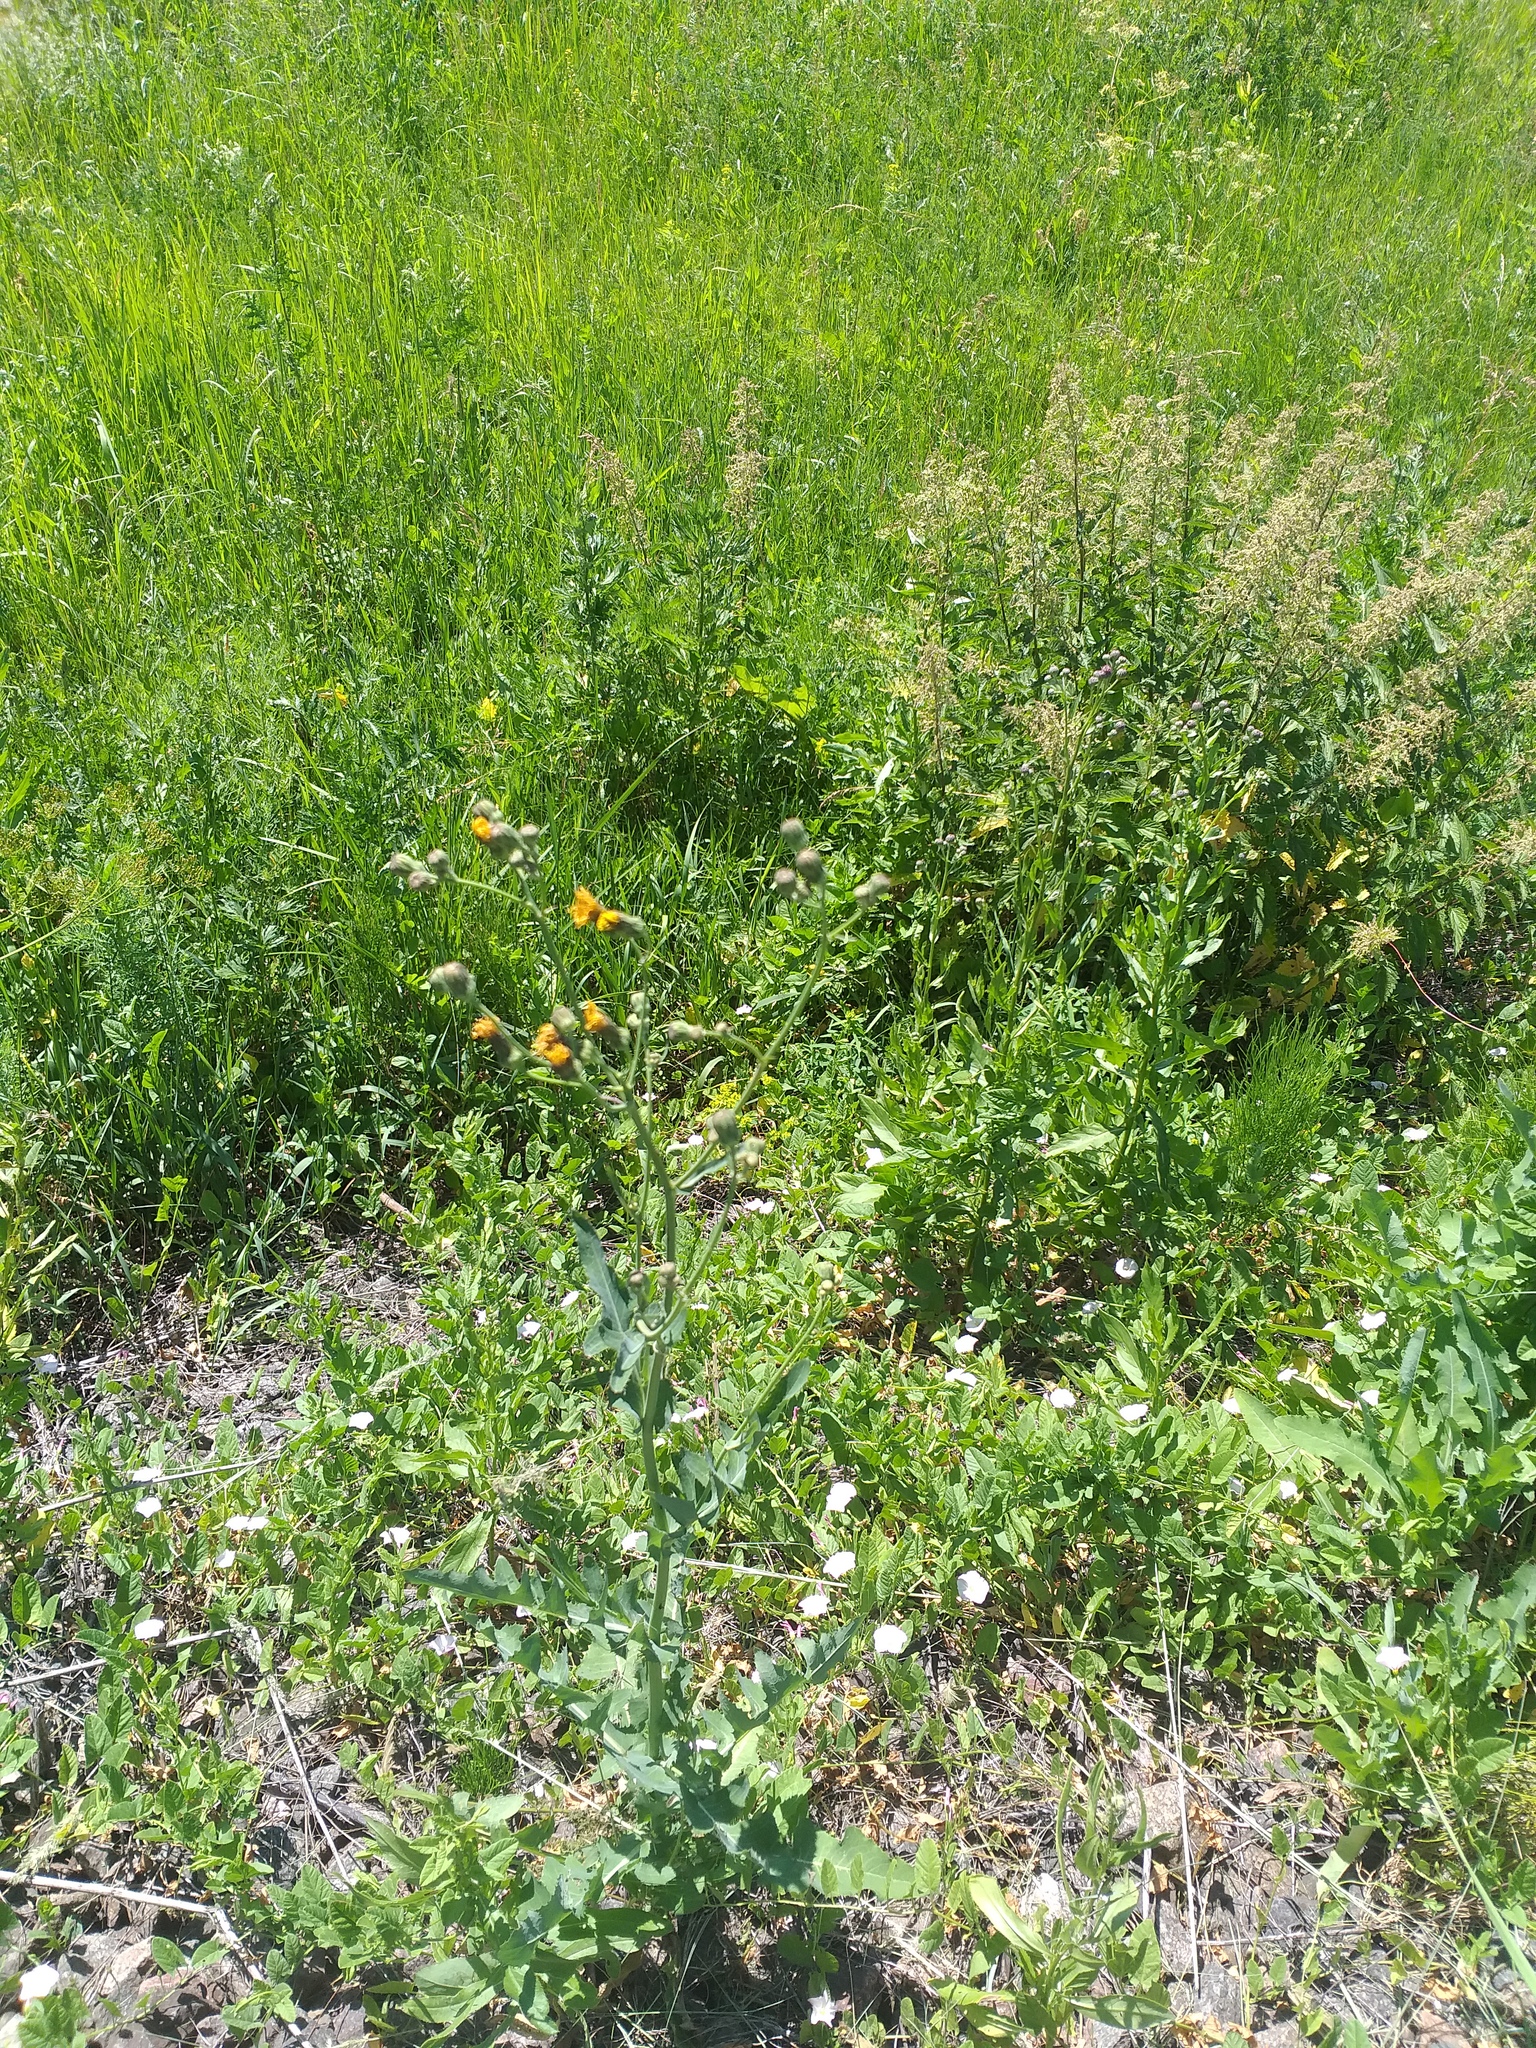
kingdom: Plantae
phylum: Tracheophyta
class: Magnoliopsida
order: Asterales
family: Asteraceae
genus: Sonchus
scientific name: Sonchus arvensis
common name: Perennial sow-thistle
